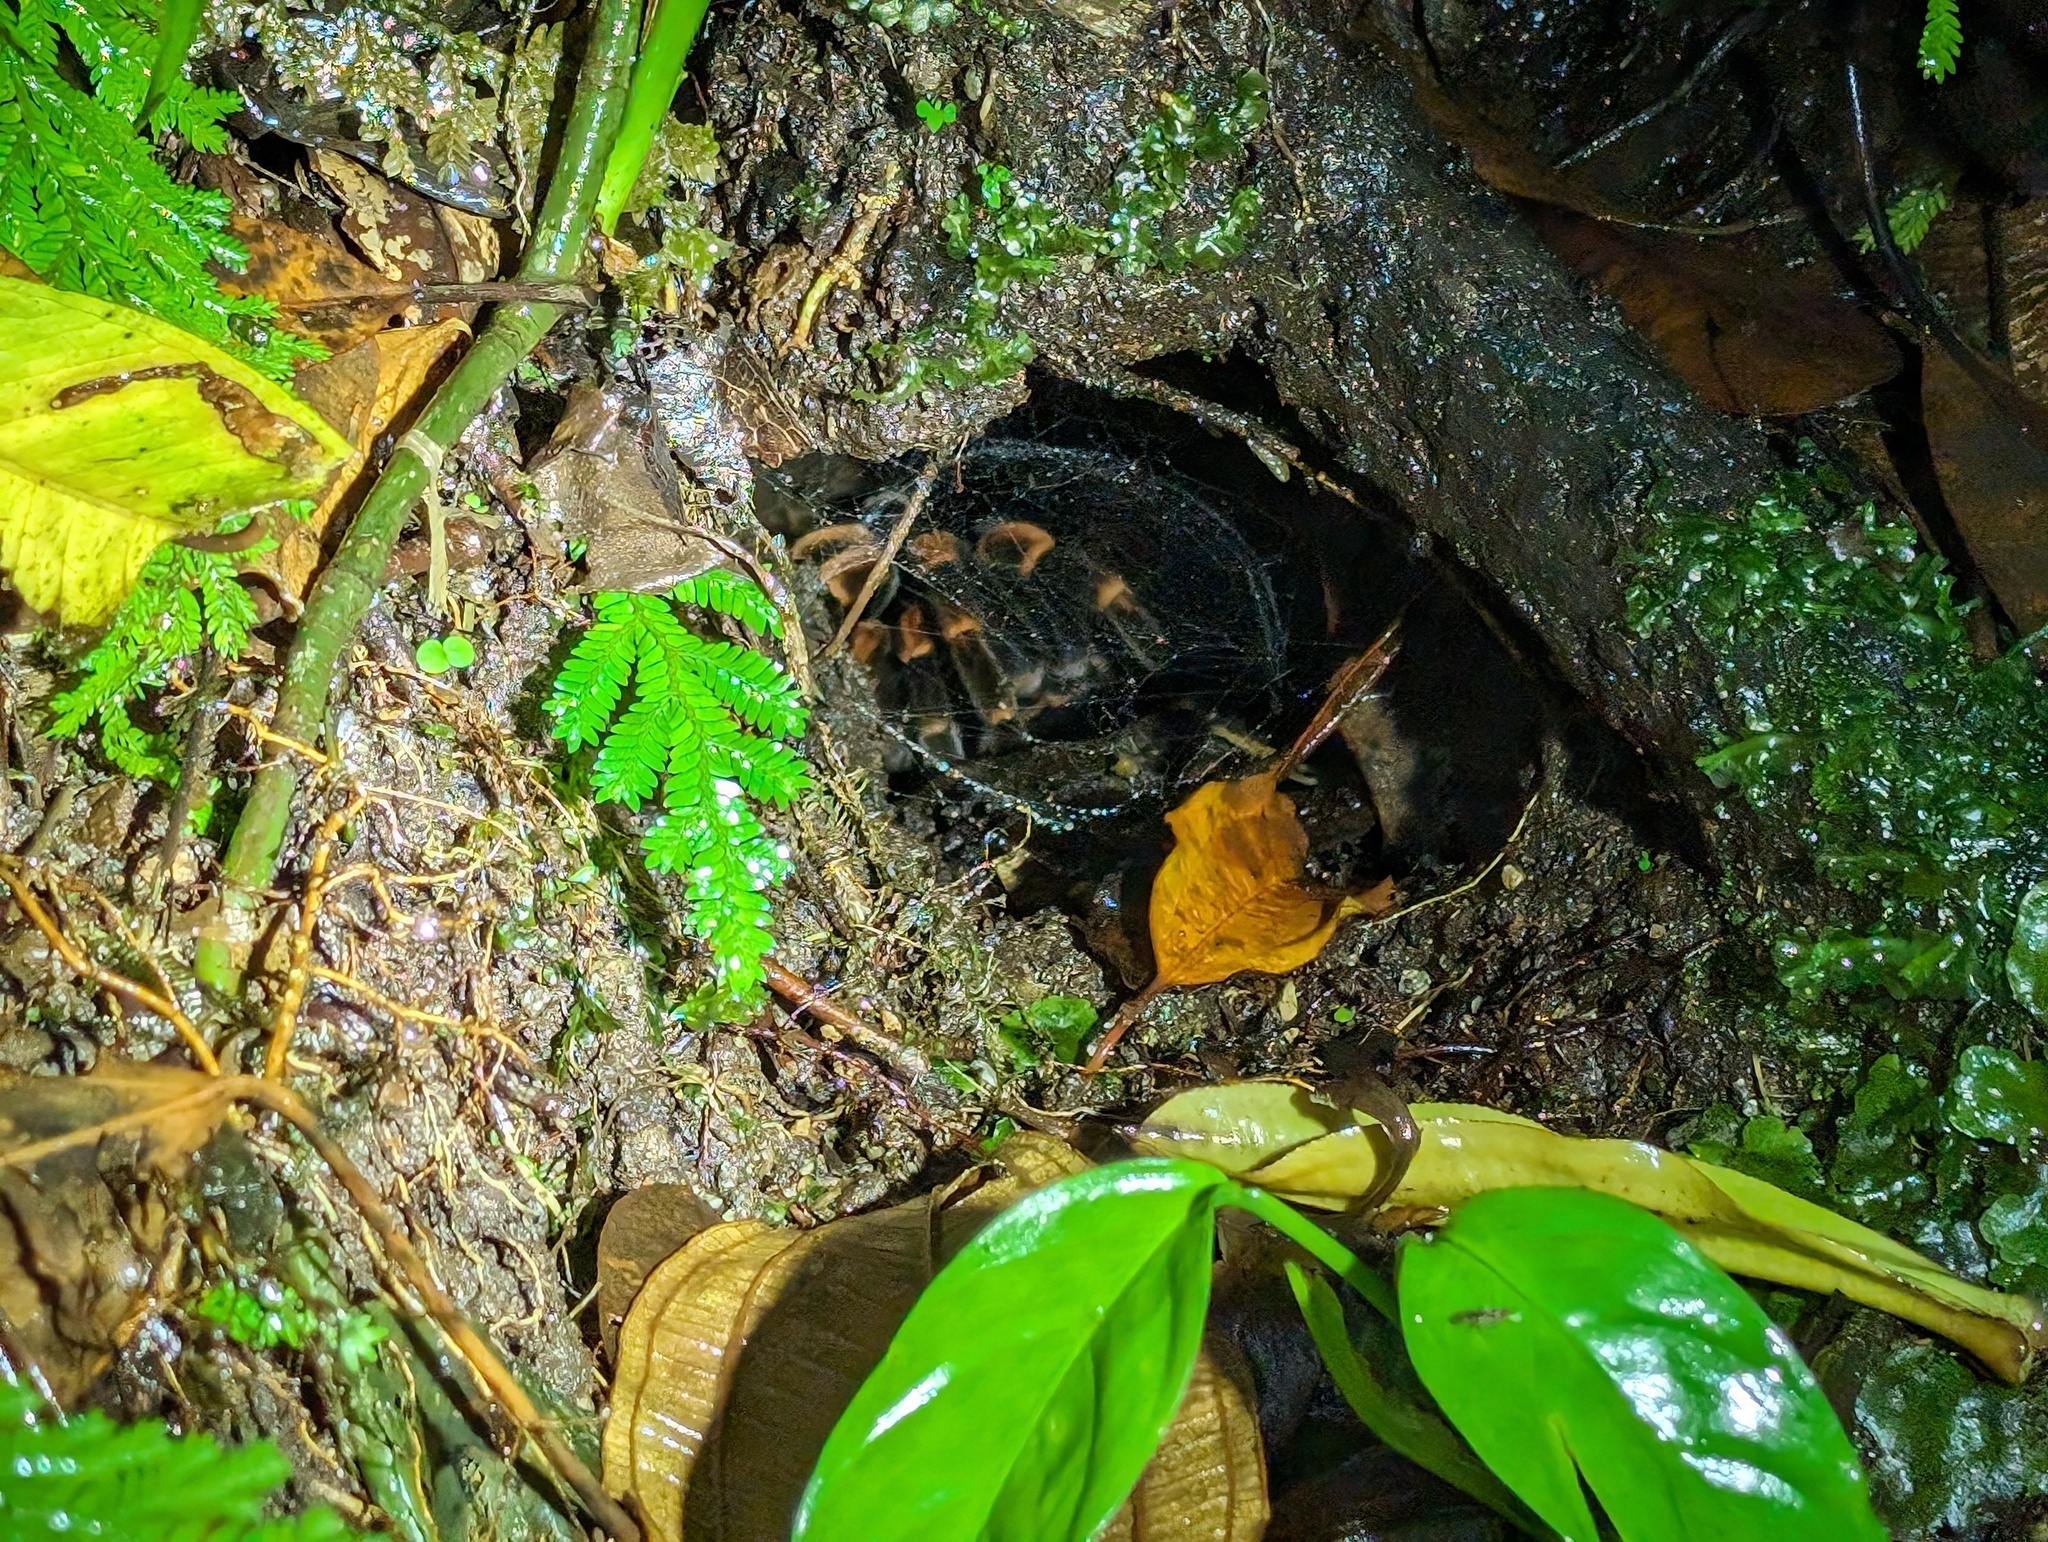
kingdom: Animalia
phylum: Arthropoda
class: Arachnida
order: Araneae
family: Theraphosidae
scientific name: Theraphosidae
